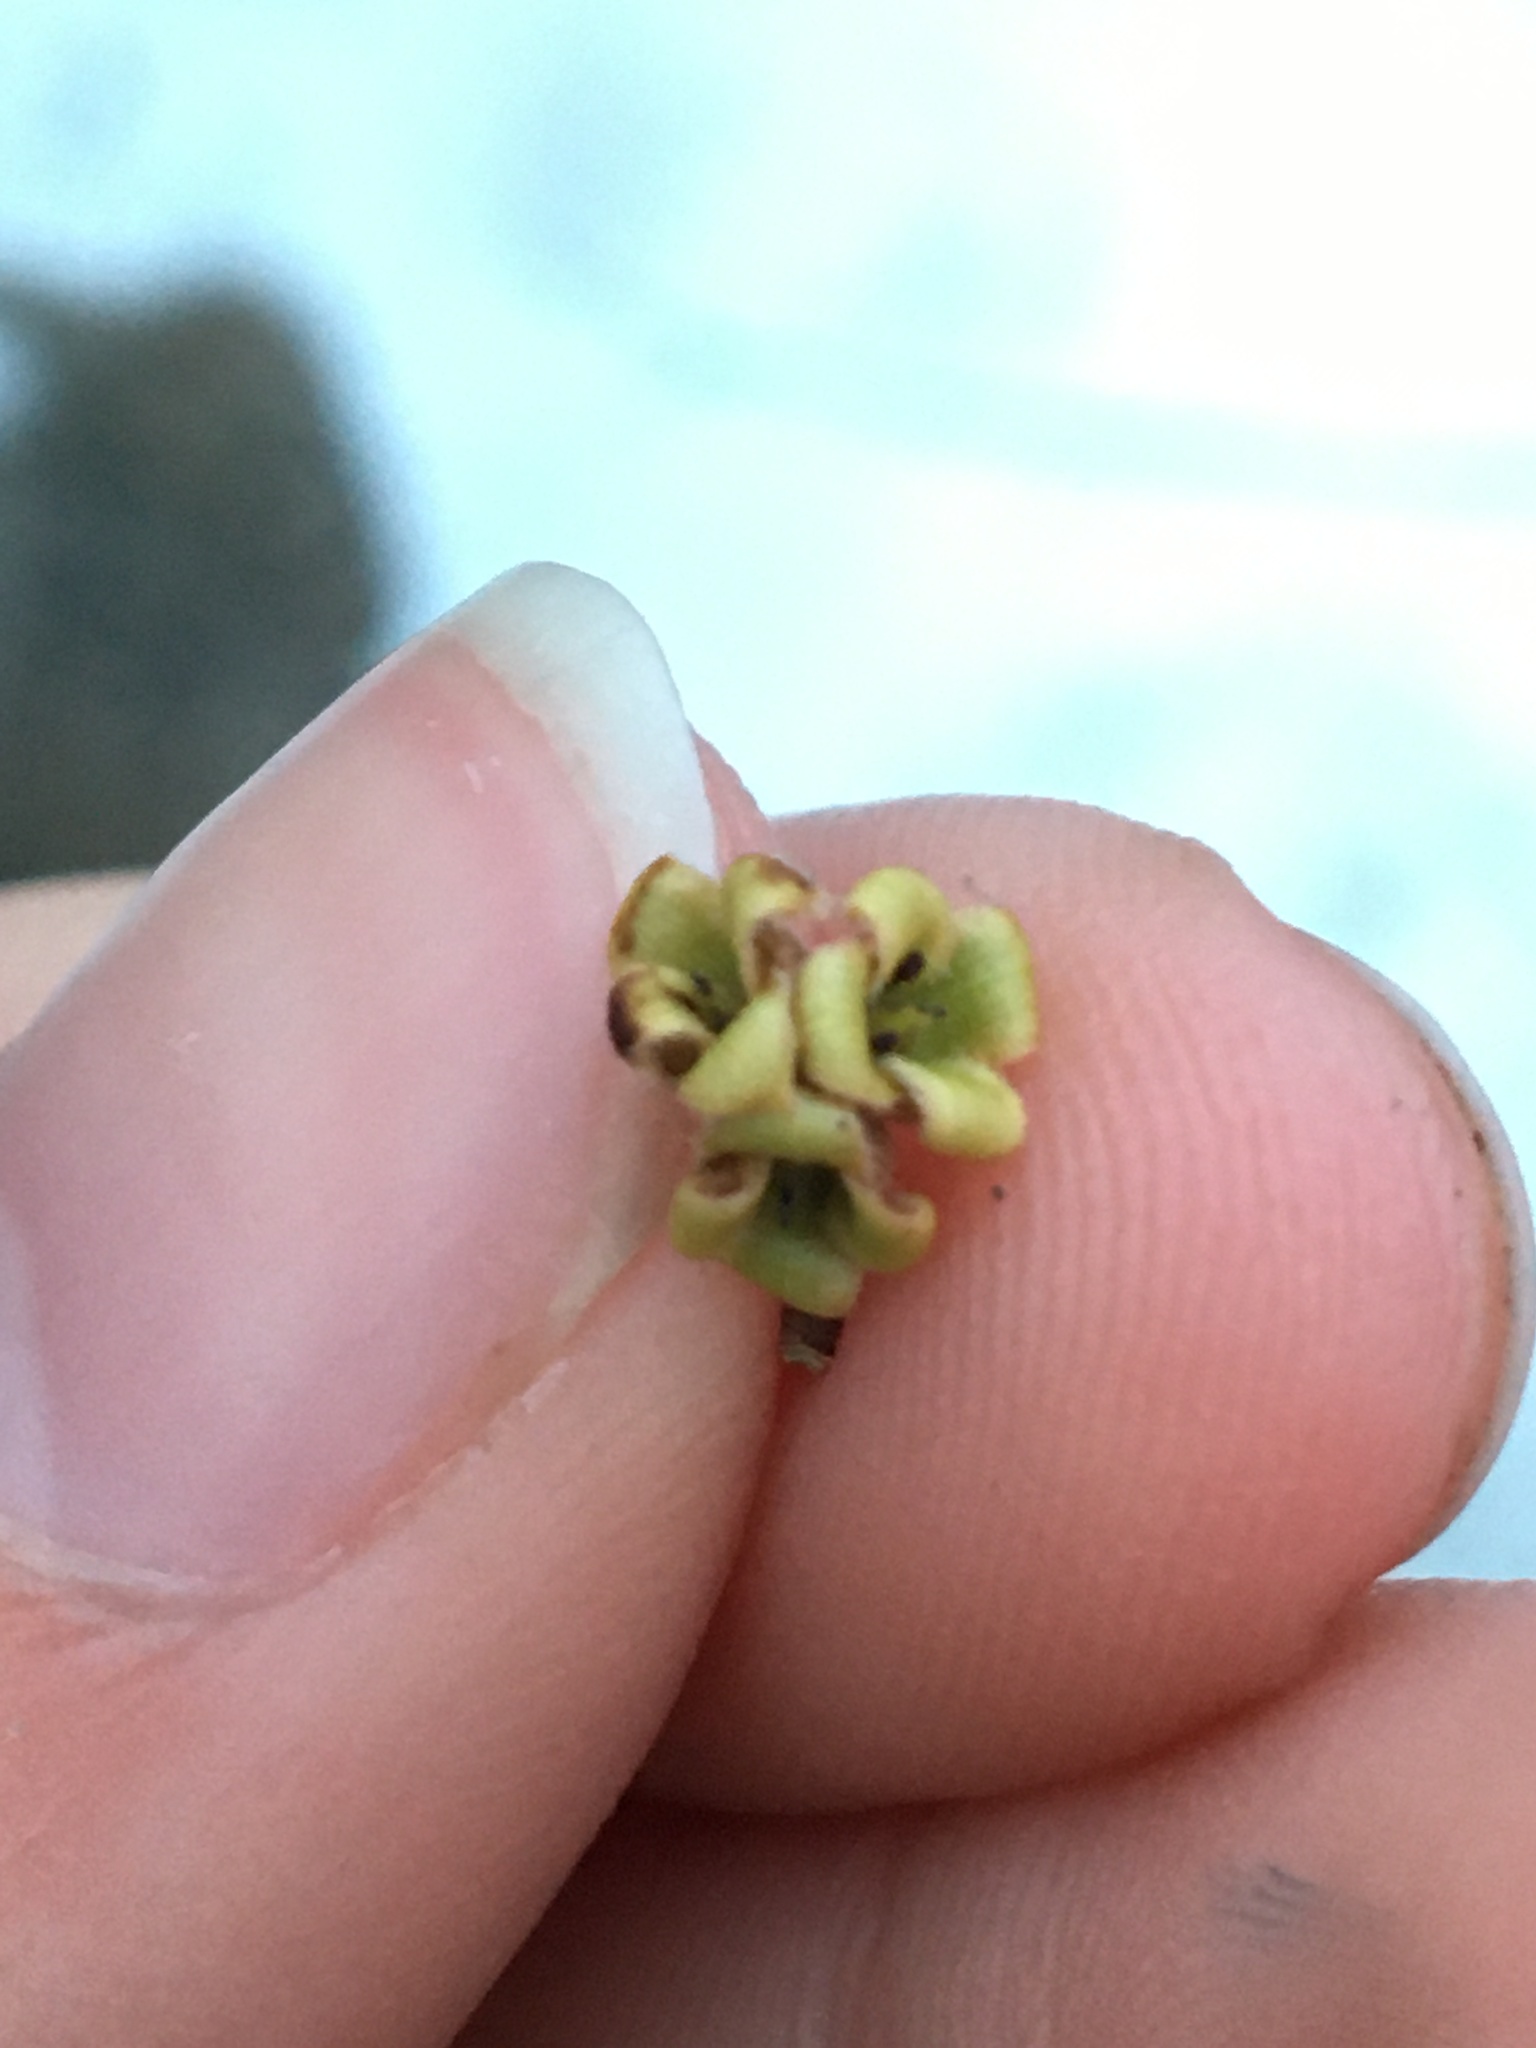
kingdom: Plantae
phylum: Tracheophyta
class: Magnoliopsida
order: Saxifragales
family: Hamamelidaceae
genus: Hamamelis
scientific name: Hamamelis virginiana
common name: Witch-hazel
